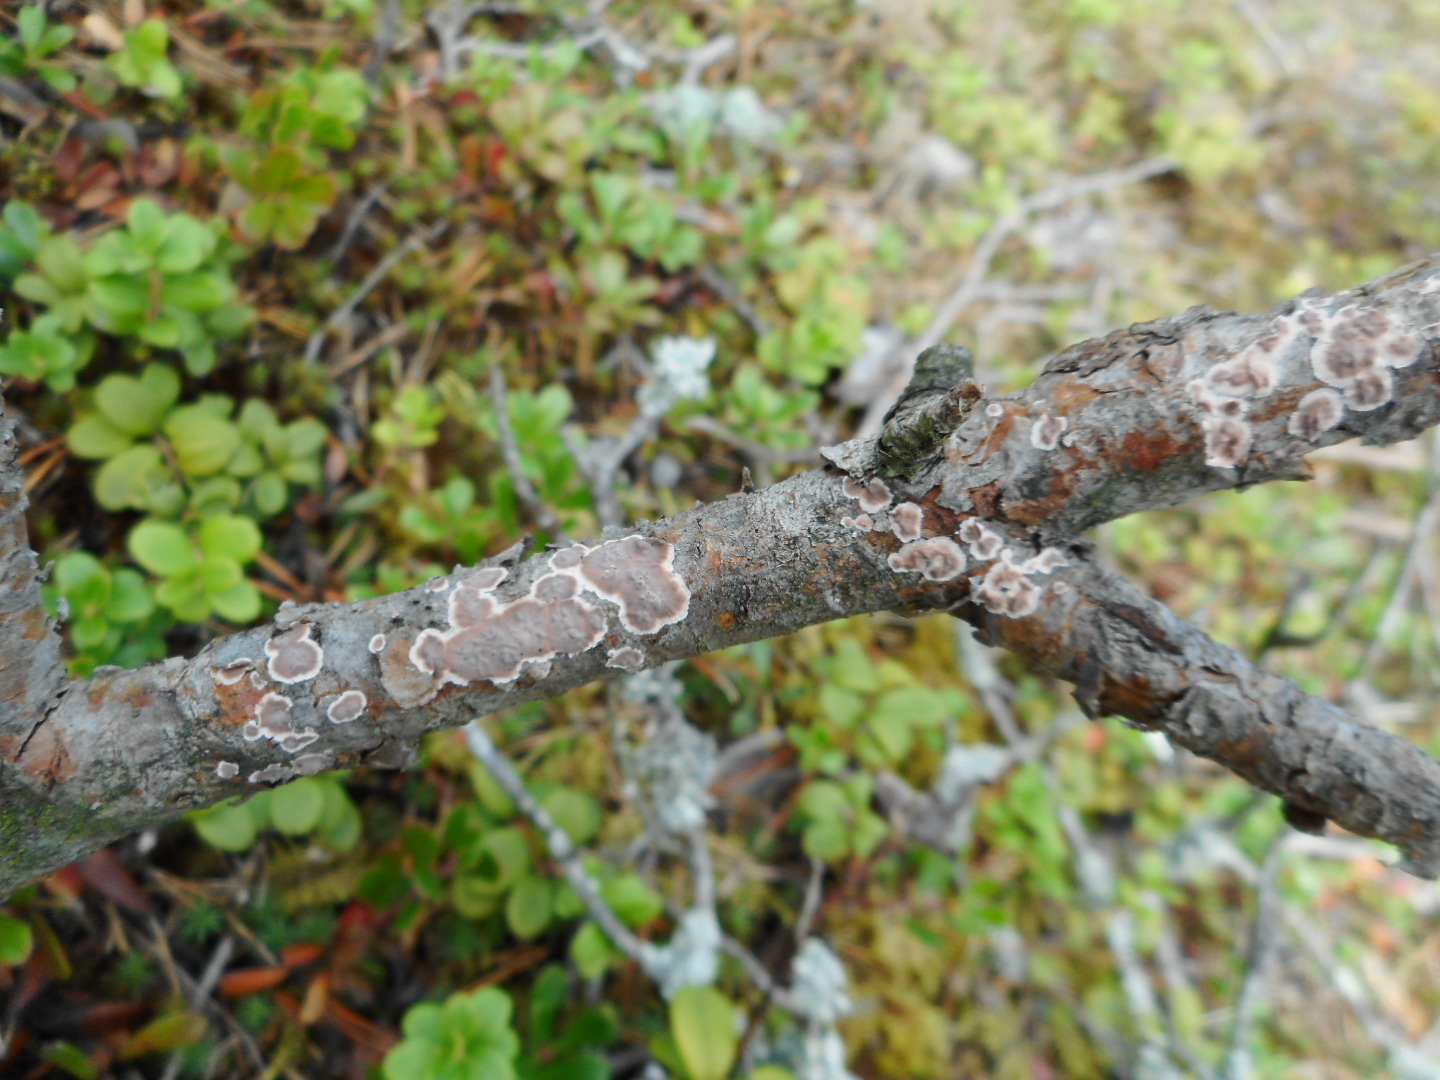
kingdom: Fungi
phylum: Basidiomycota
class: Agaricomycetes
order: Russulales
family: Peniophoraceae
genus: Peniophora
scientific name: Peniophora pini
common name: Pine crust
